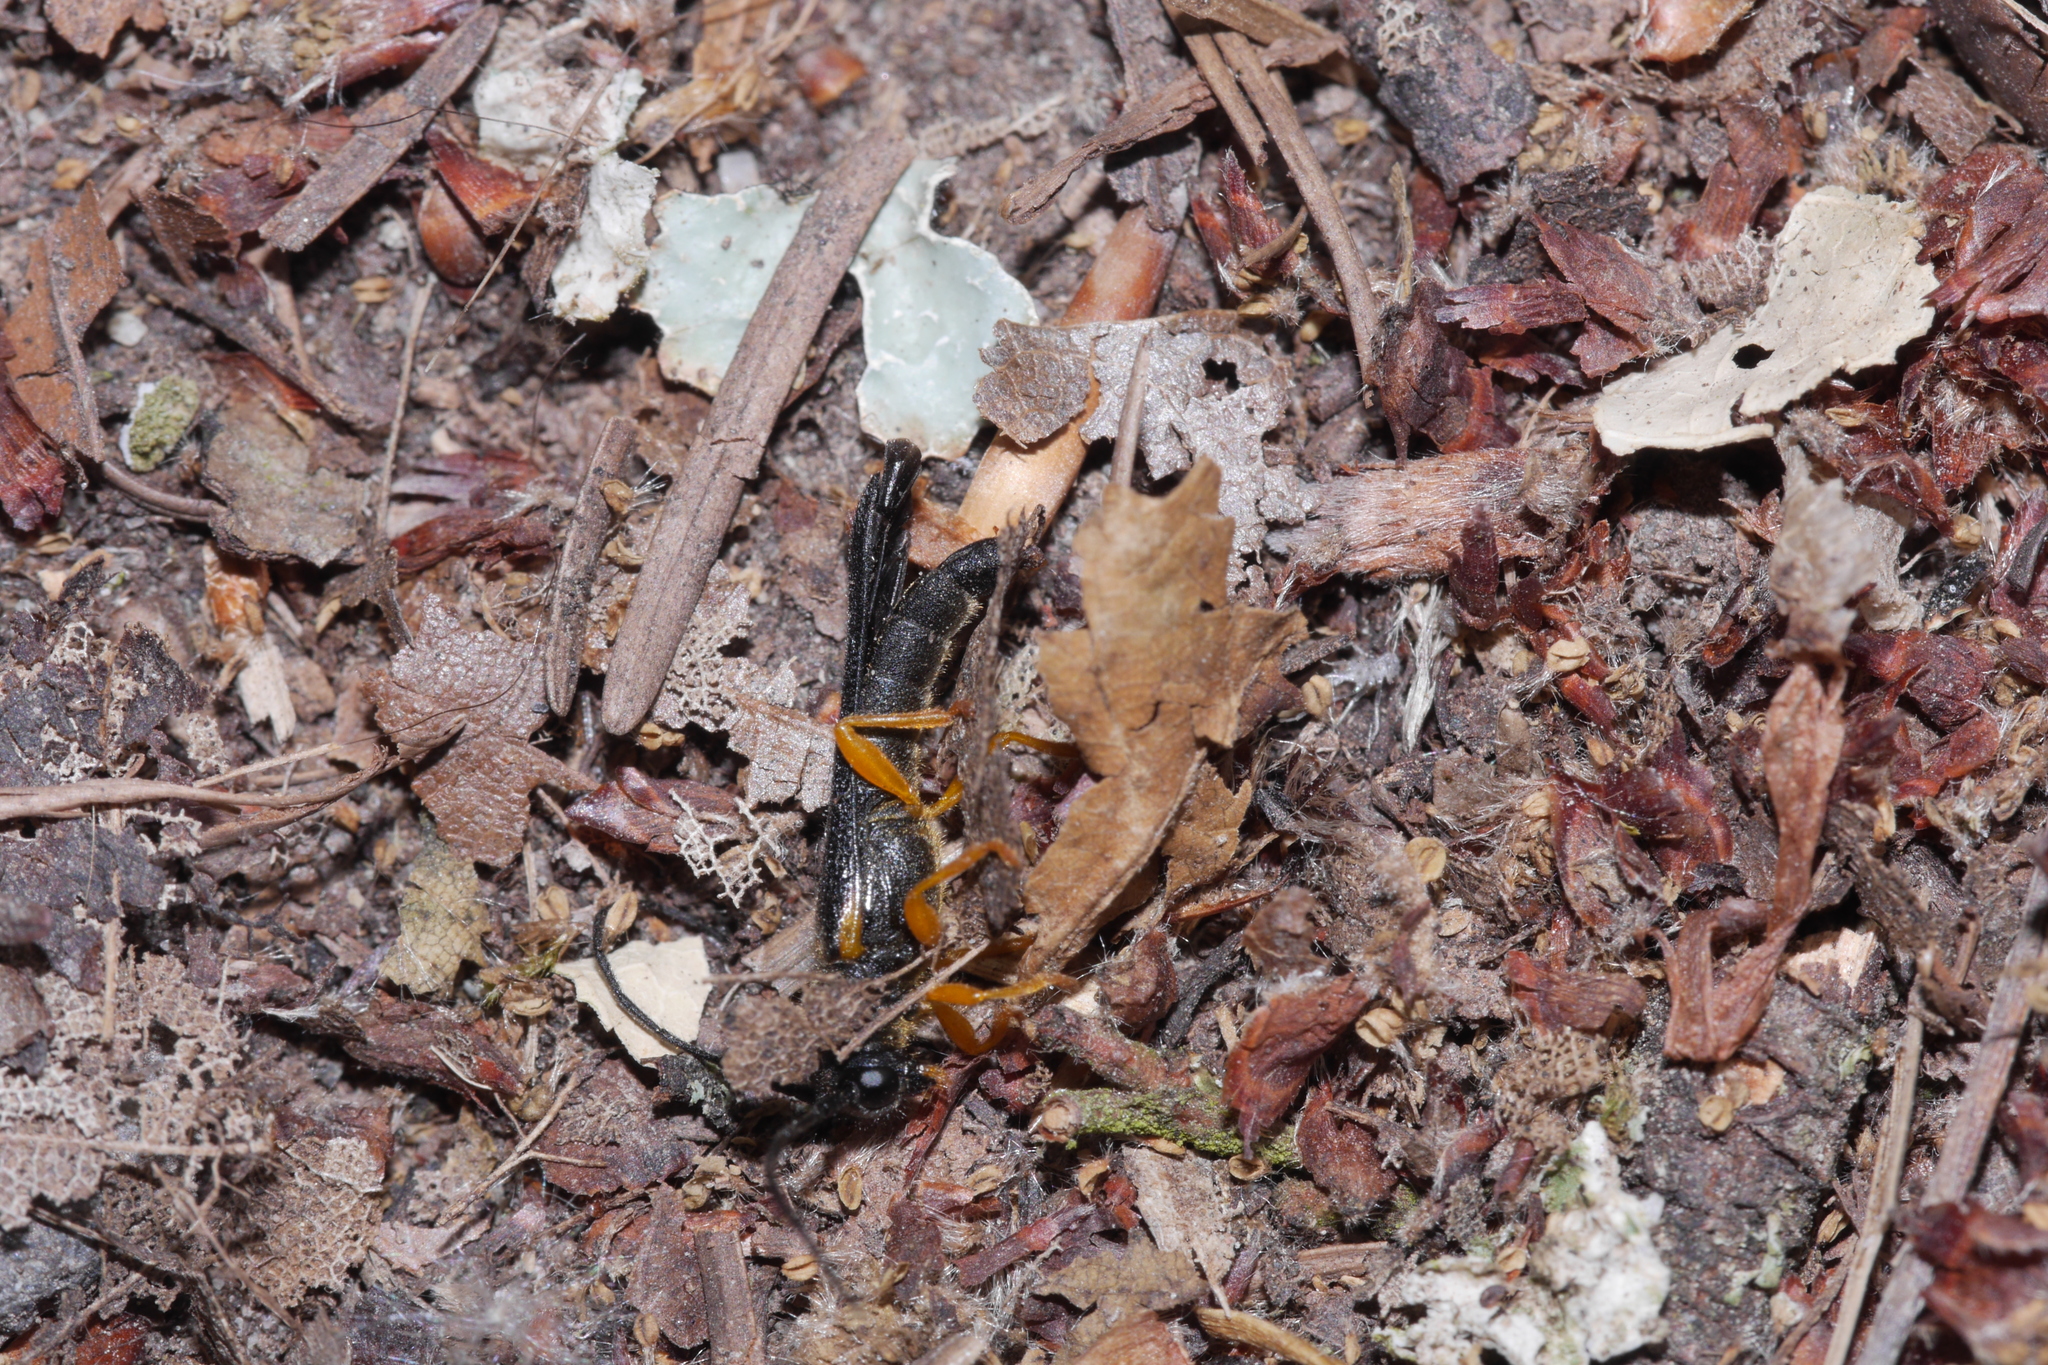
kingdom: Animalia
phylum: Arthropoda
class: Insecta
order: Coleoptera
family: Cerambycidae
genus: Oberea
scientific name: Oberea linearis
